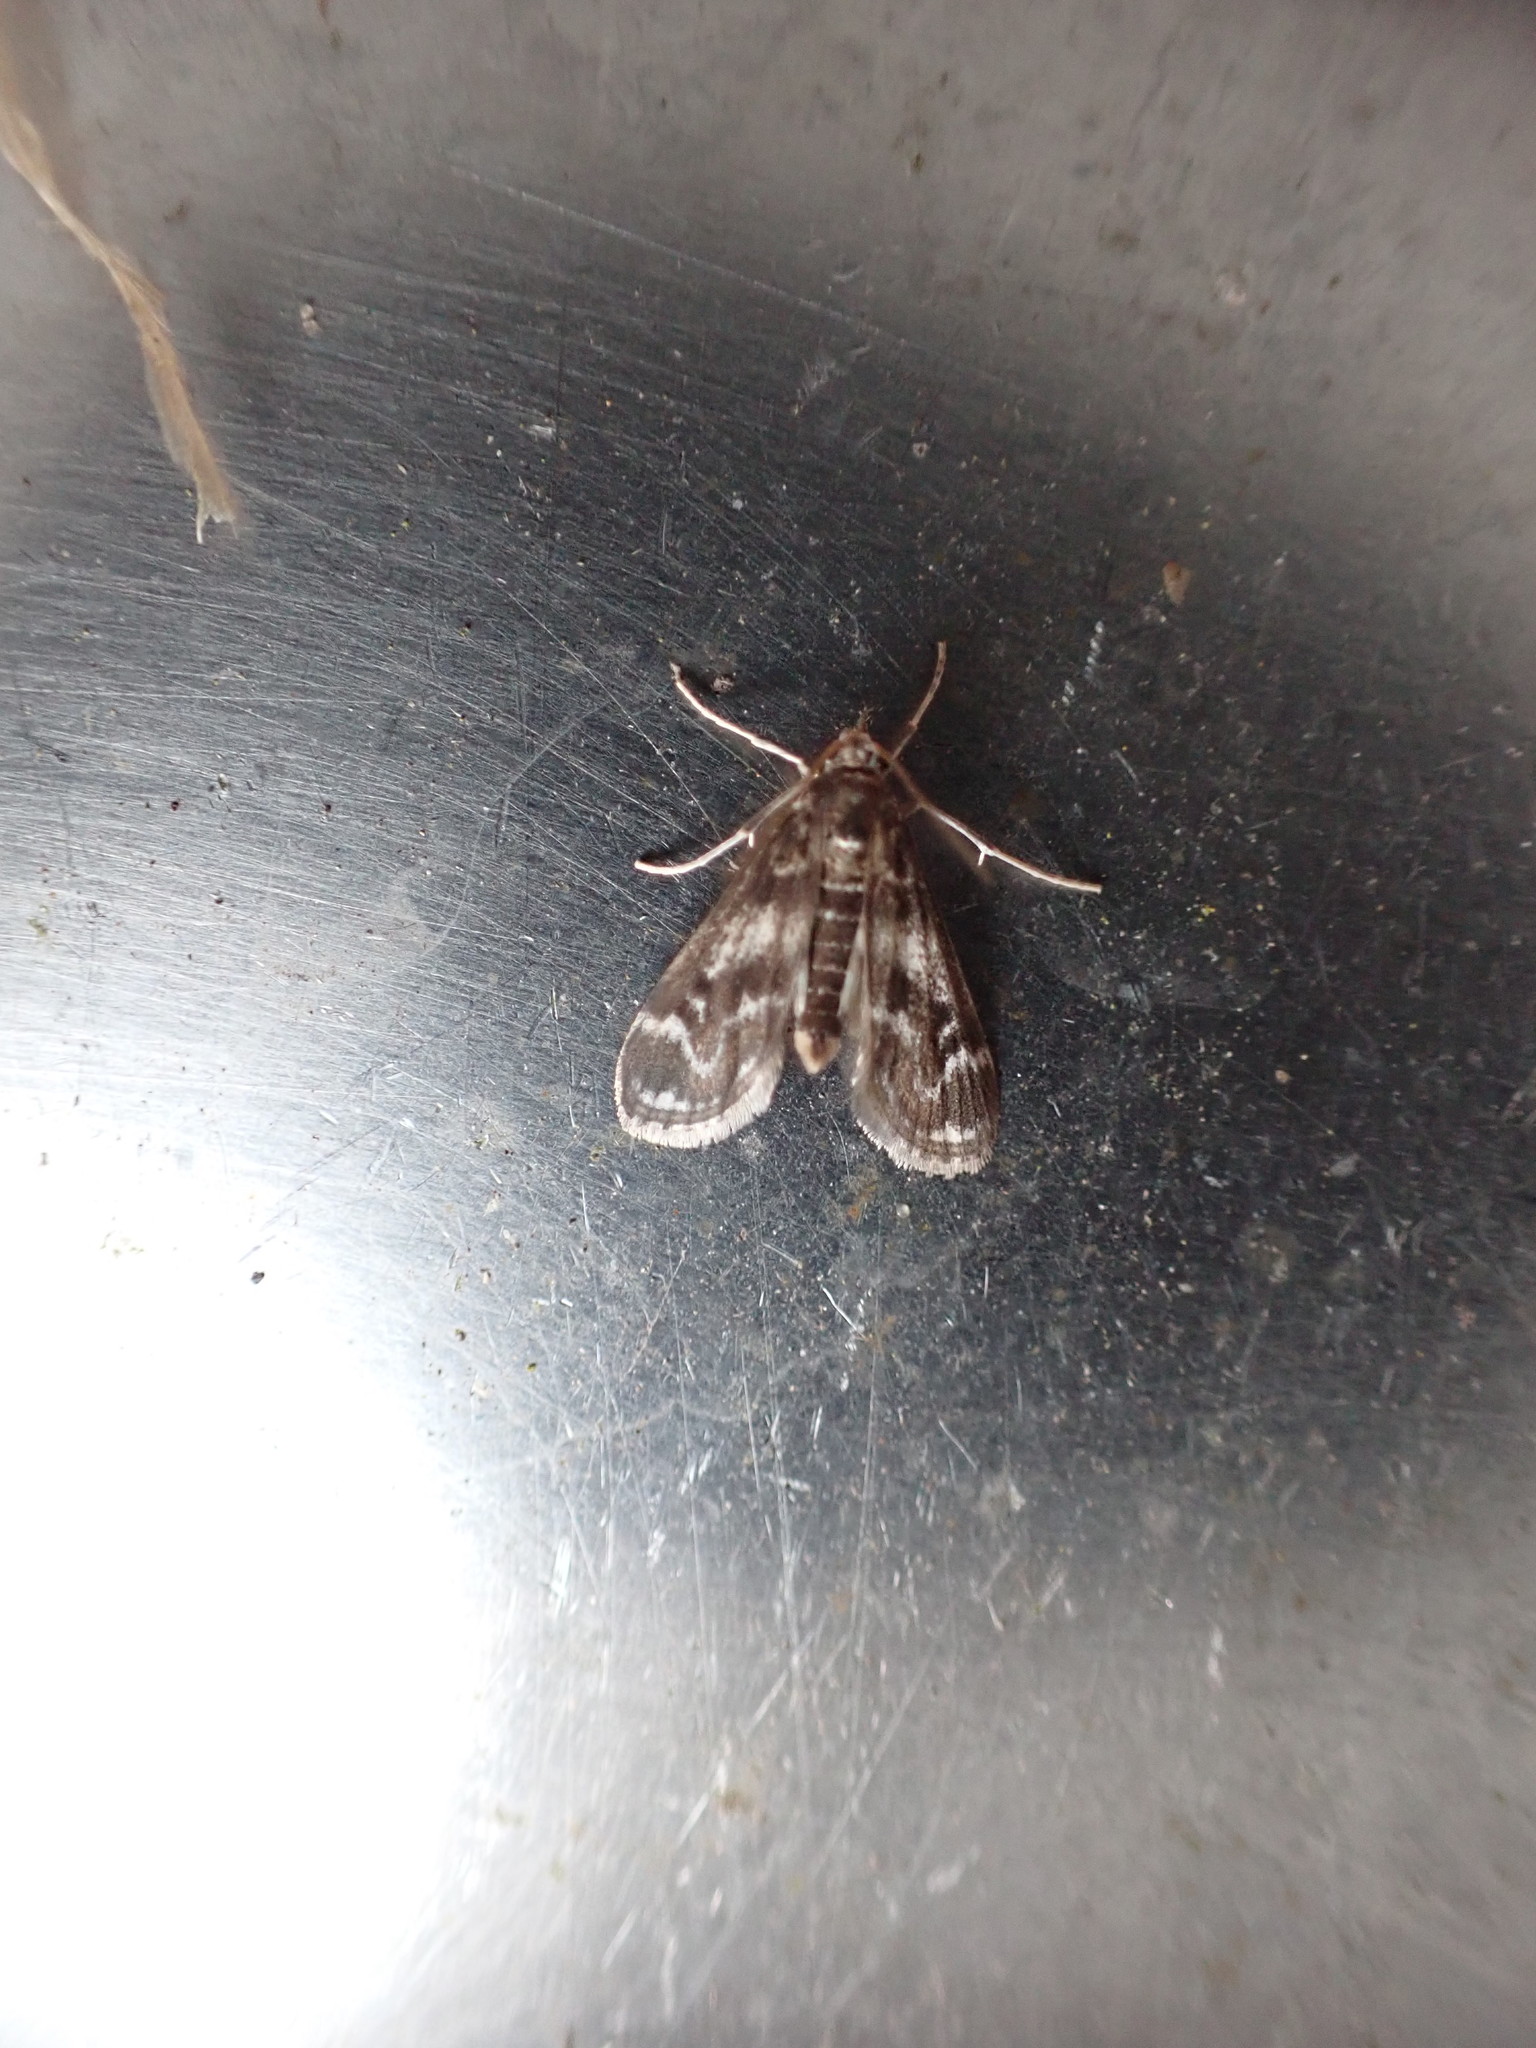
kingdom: Animalia
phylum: Arthropoda
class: Insecta
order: Lepidoptera
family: Crambidae
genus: Hygraula
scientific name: Hygraula nitens
